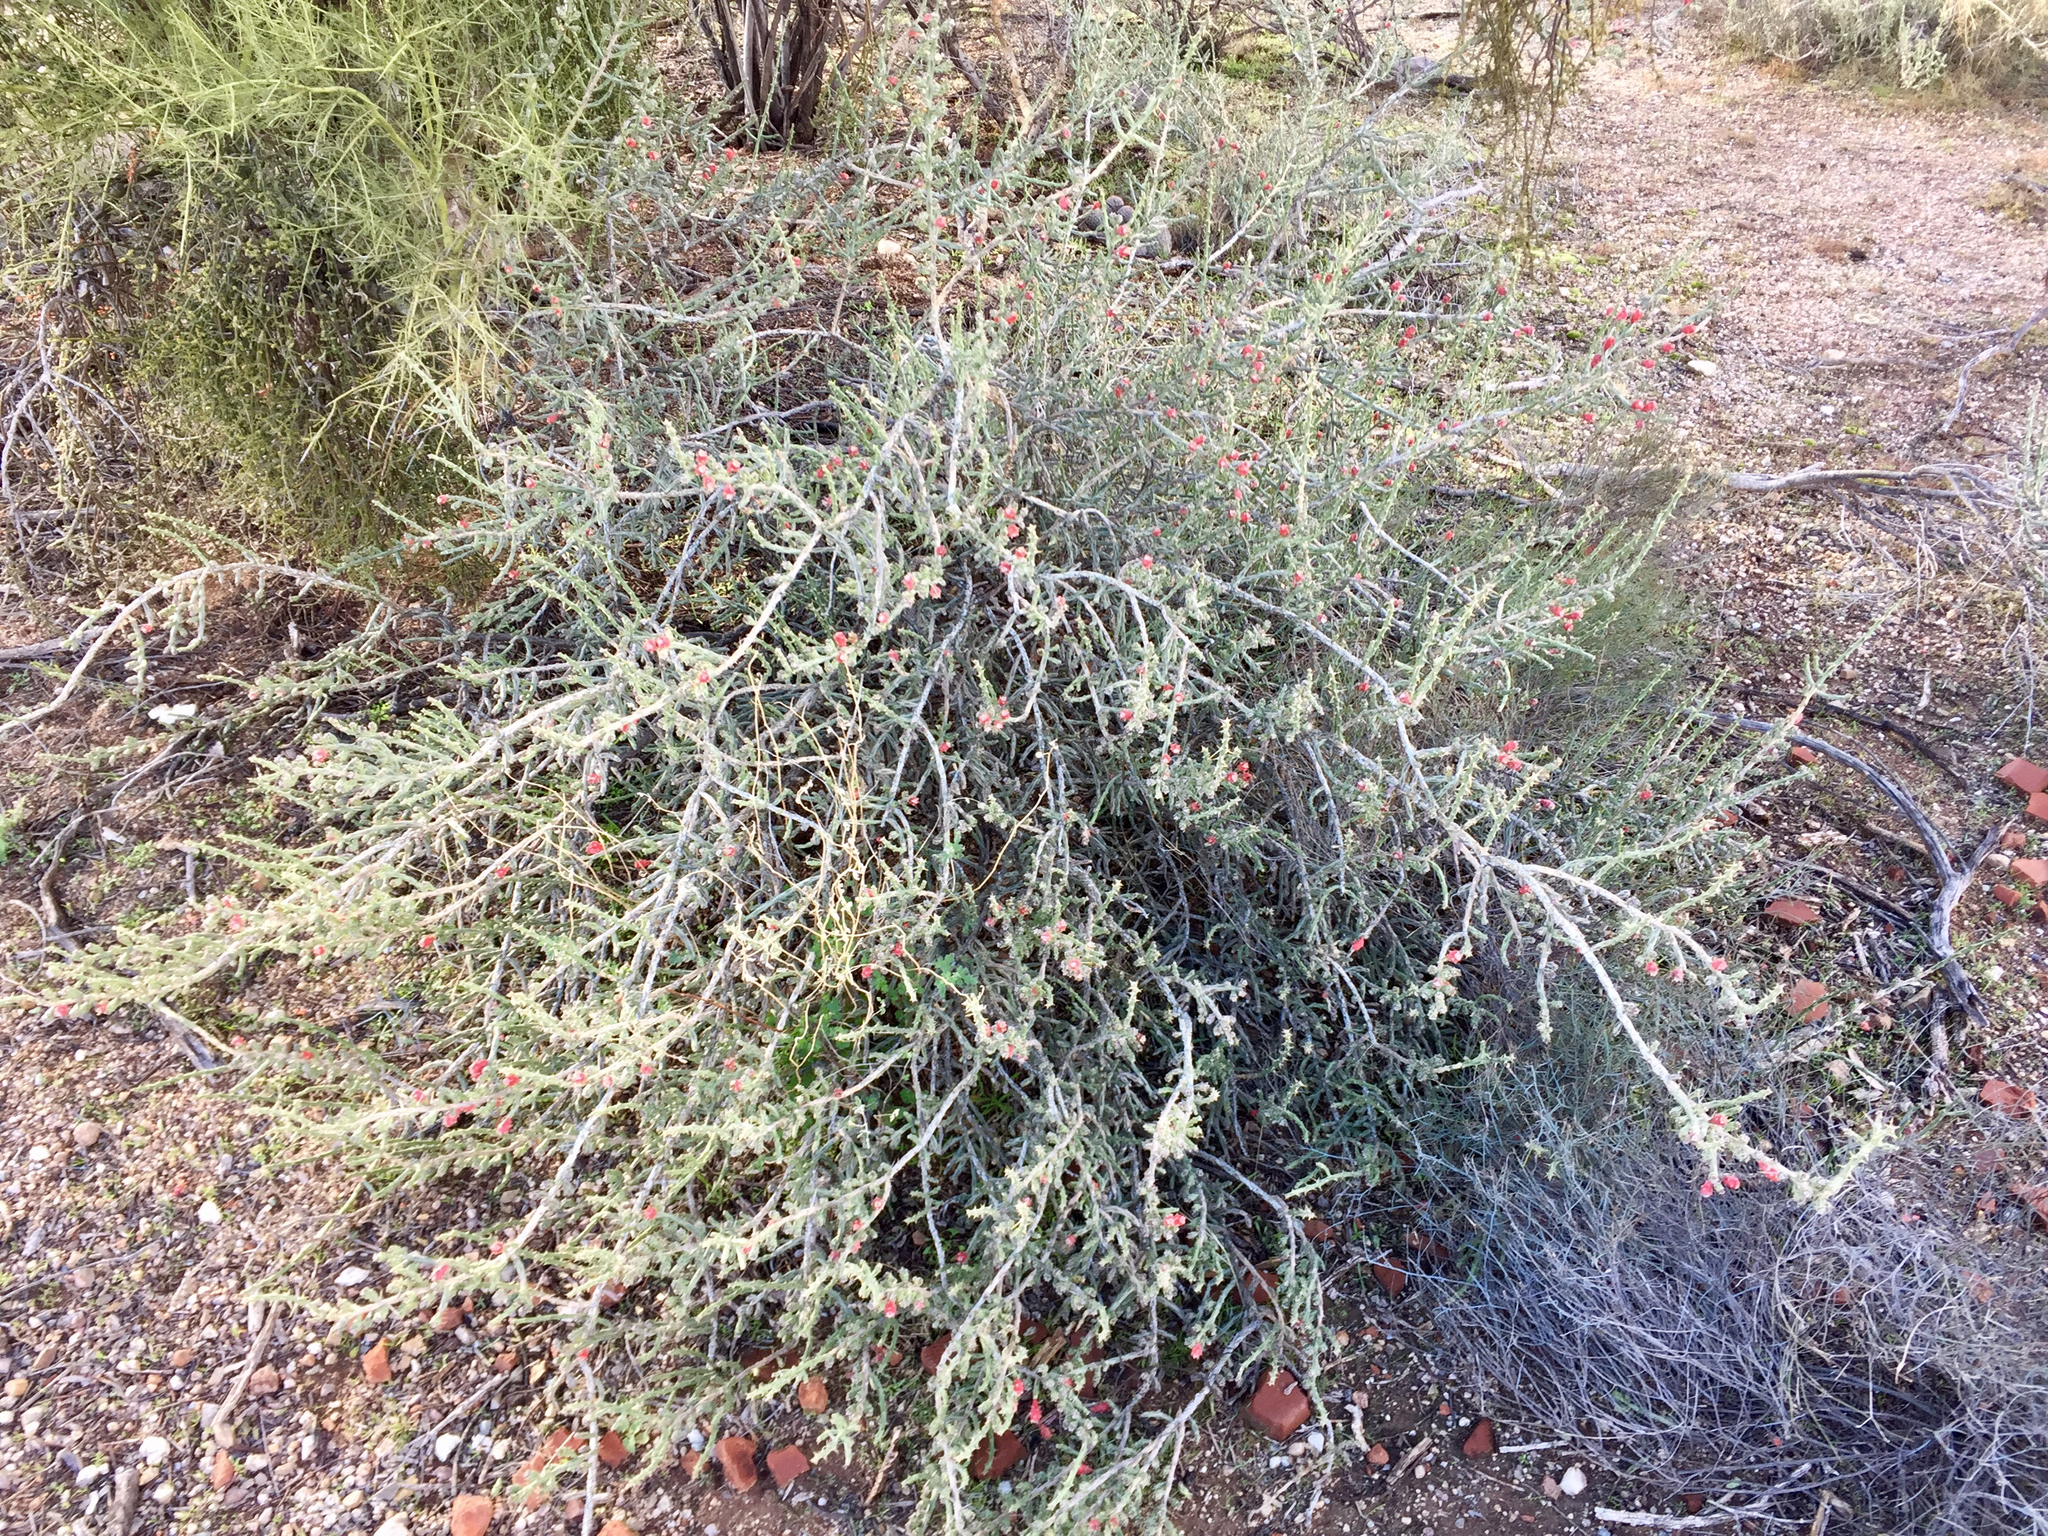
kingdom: Plantae
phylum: Tracheophyta
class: Magnoliopsida
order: Caryophyllales
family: Cactaceae
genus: Cylindropuntia
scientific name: Cylindropuntia leptocaulis
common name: Christmas cactus
